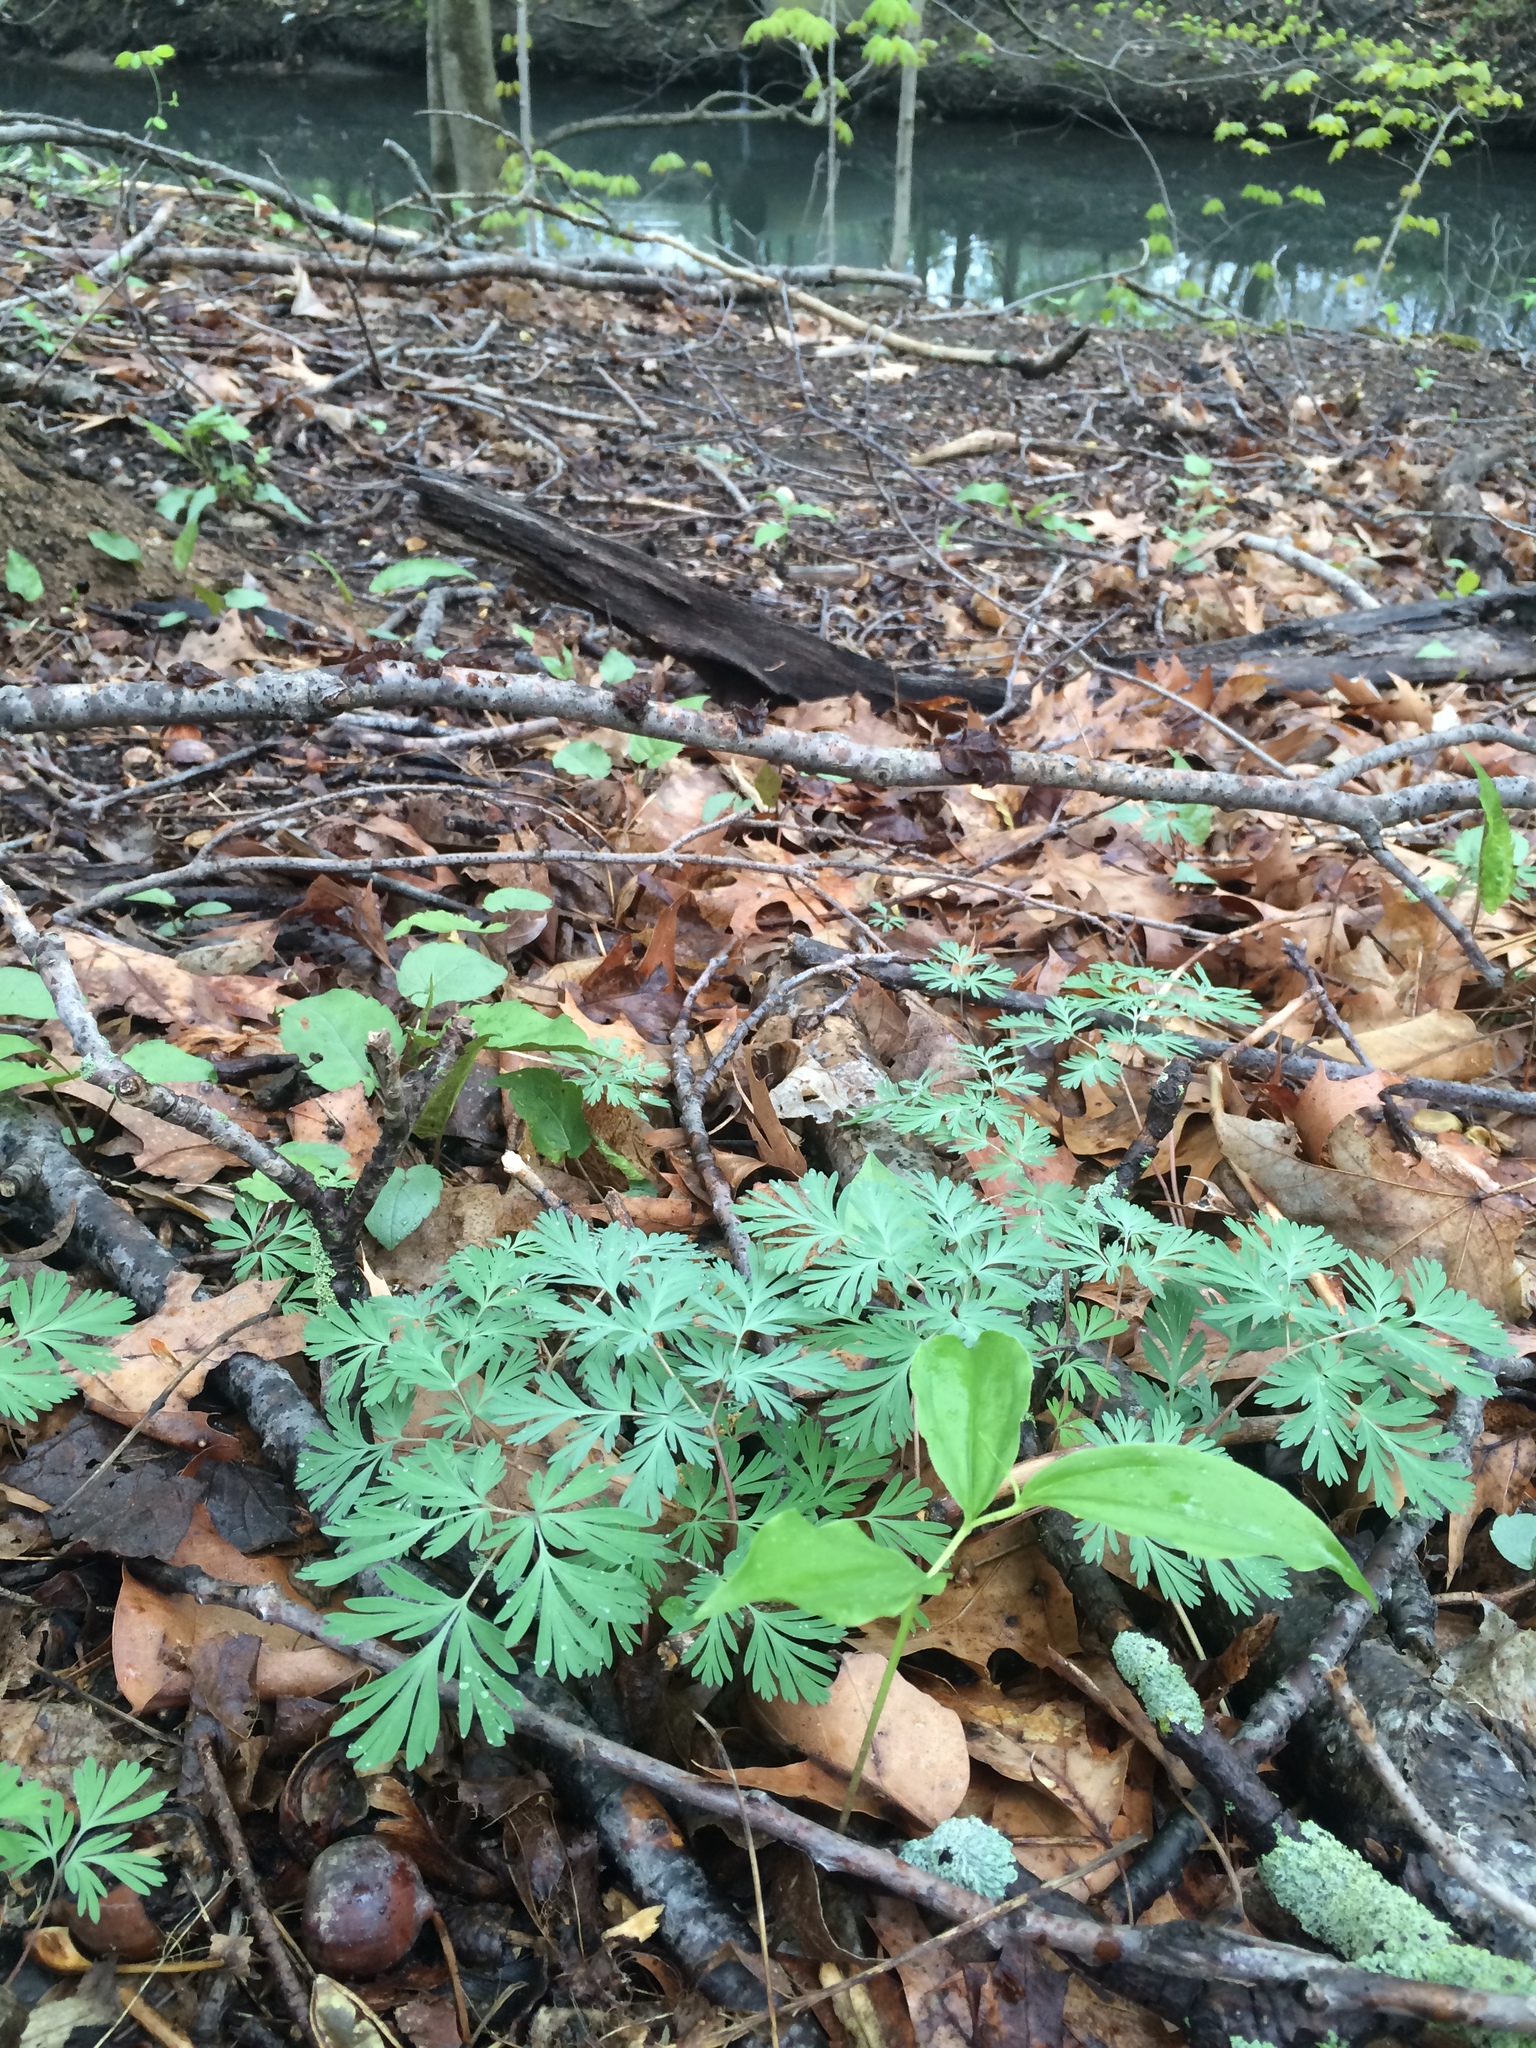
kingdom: Plantae
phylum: Tracheophyta
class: Magnoliopsida
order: Ranunculales
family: Papaveraceae
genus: Dicentra
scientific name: Dicentra cucullaria
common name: Dutchman's breeches
